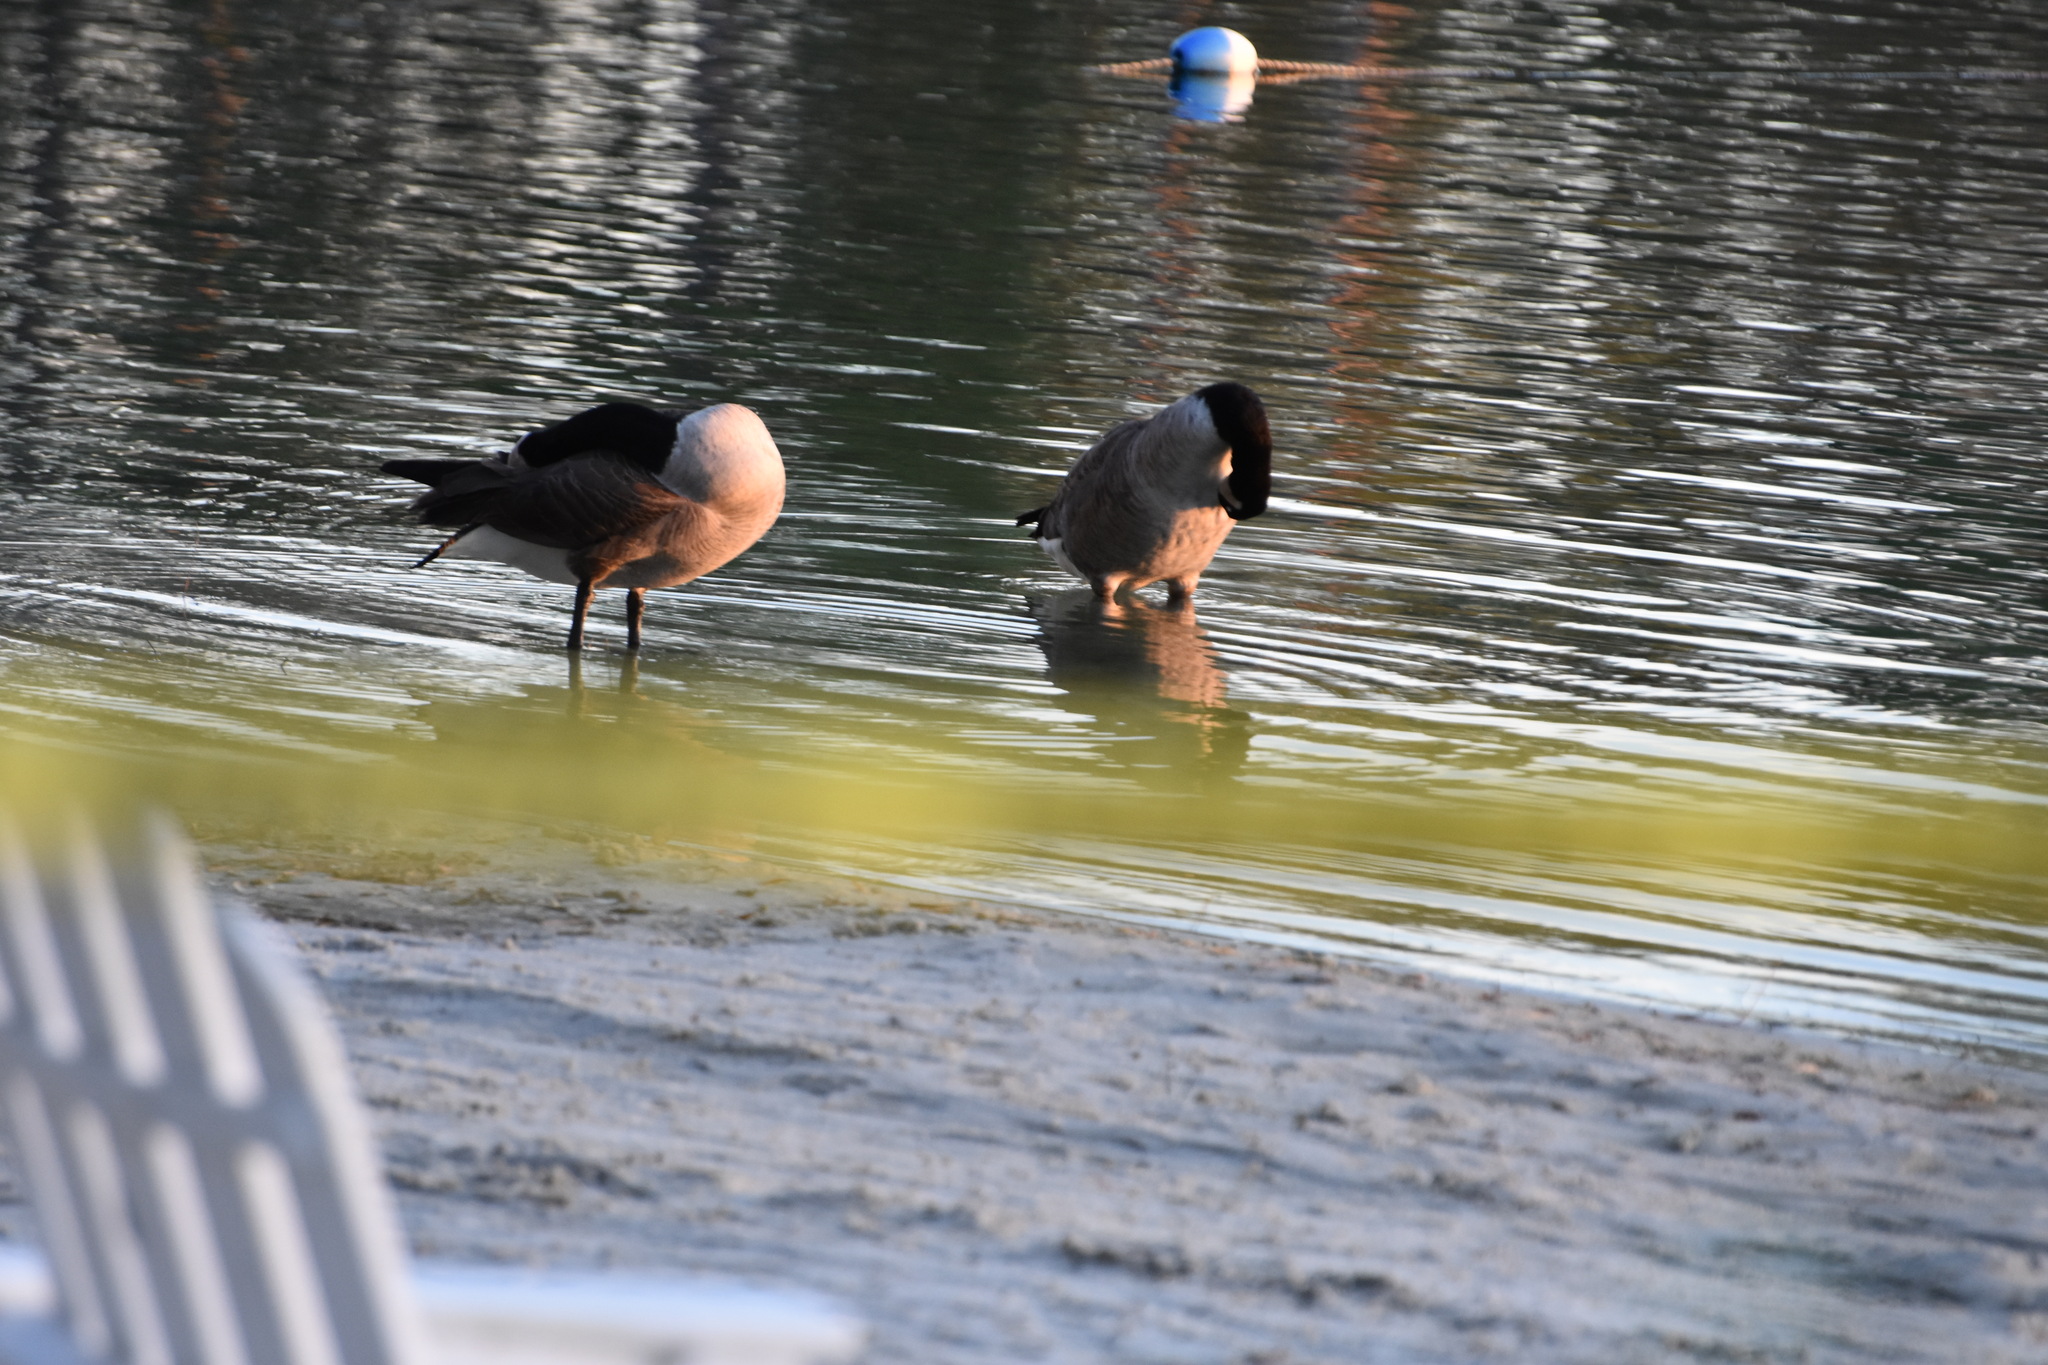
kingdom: Animalia
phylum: Chordata
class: Aves
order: Anseriformes
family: Anatidae
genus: Branta
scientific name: Branta canadensis
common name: Canada goose
